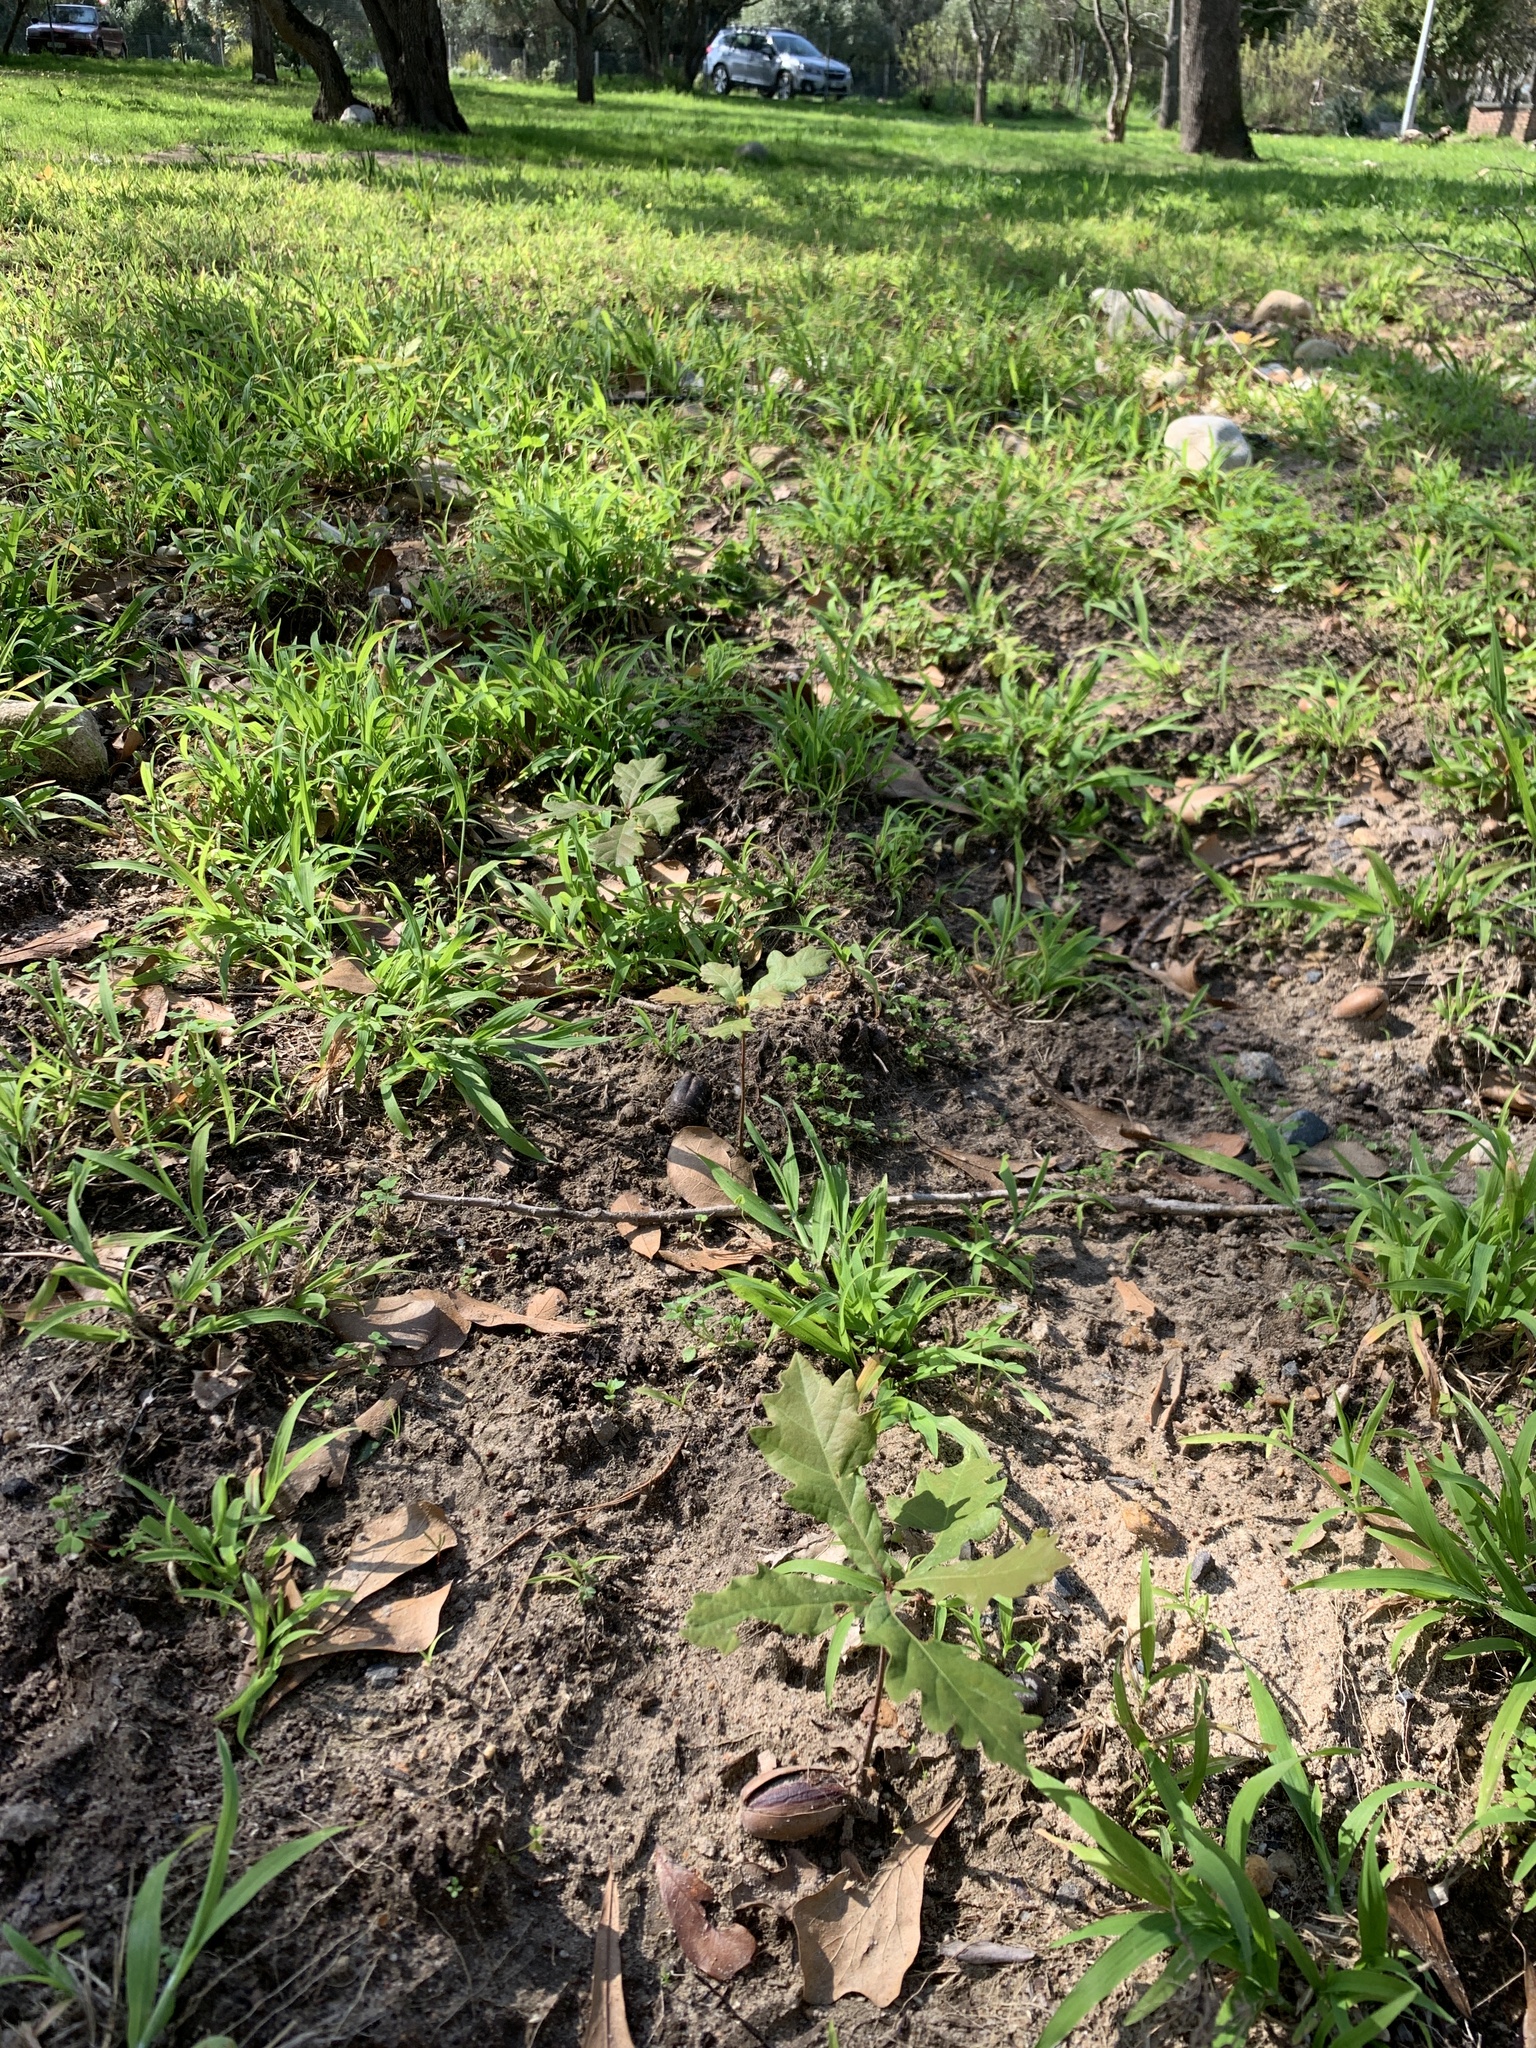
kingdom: Plantae
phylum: Tracheophyta
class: Magnoliopsida
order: Fagales
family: Fagaceae
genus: Quercus
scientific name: Quercus robur
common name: Pedunculate oak
